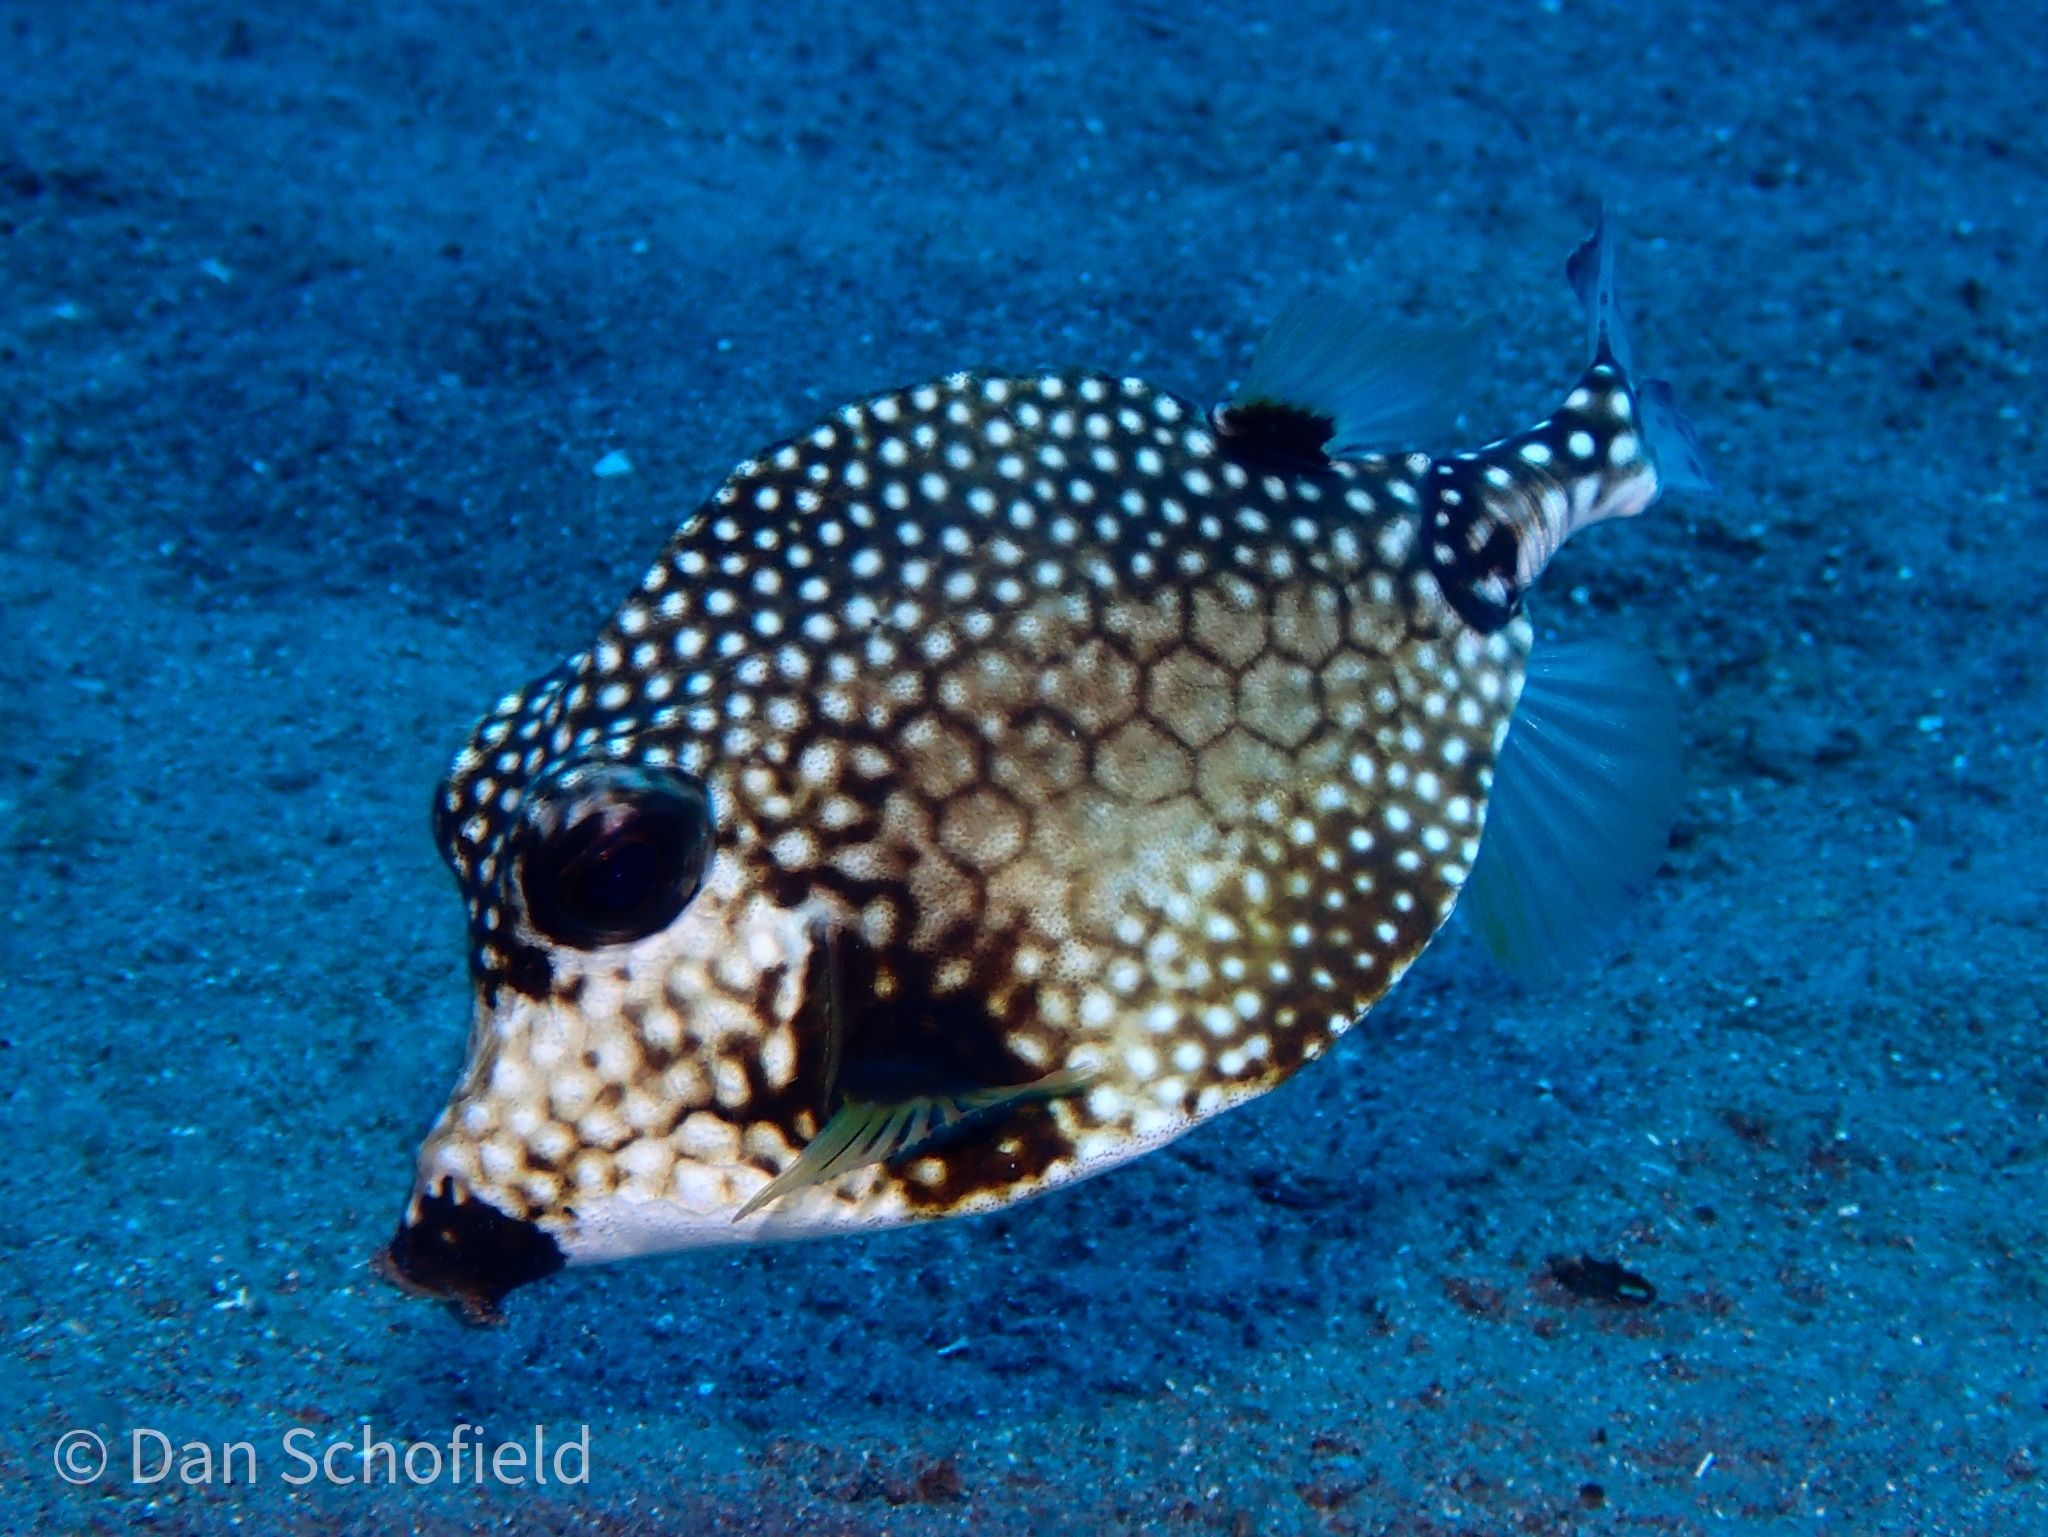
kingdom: Animalia
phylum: Chordata
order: Tetraodontiformes
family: Ostraciidae
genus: Lactophrys
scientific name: Lactophrys triqueter
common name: Smooth trunkfish
